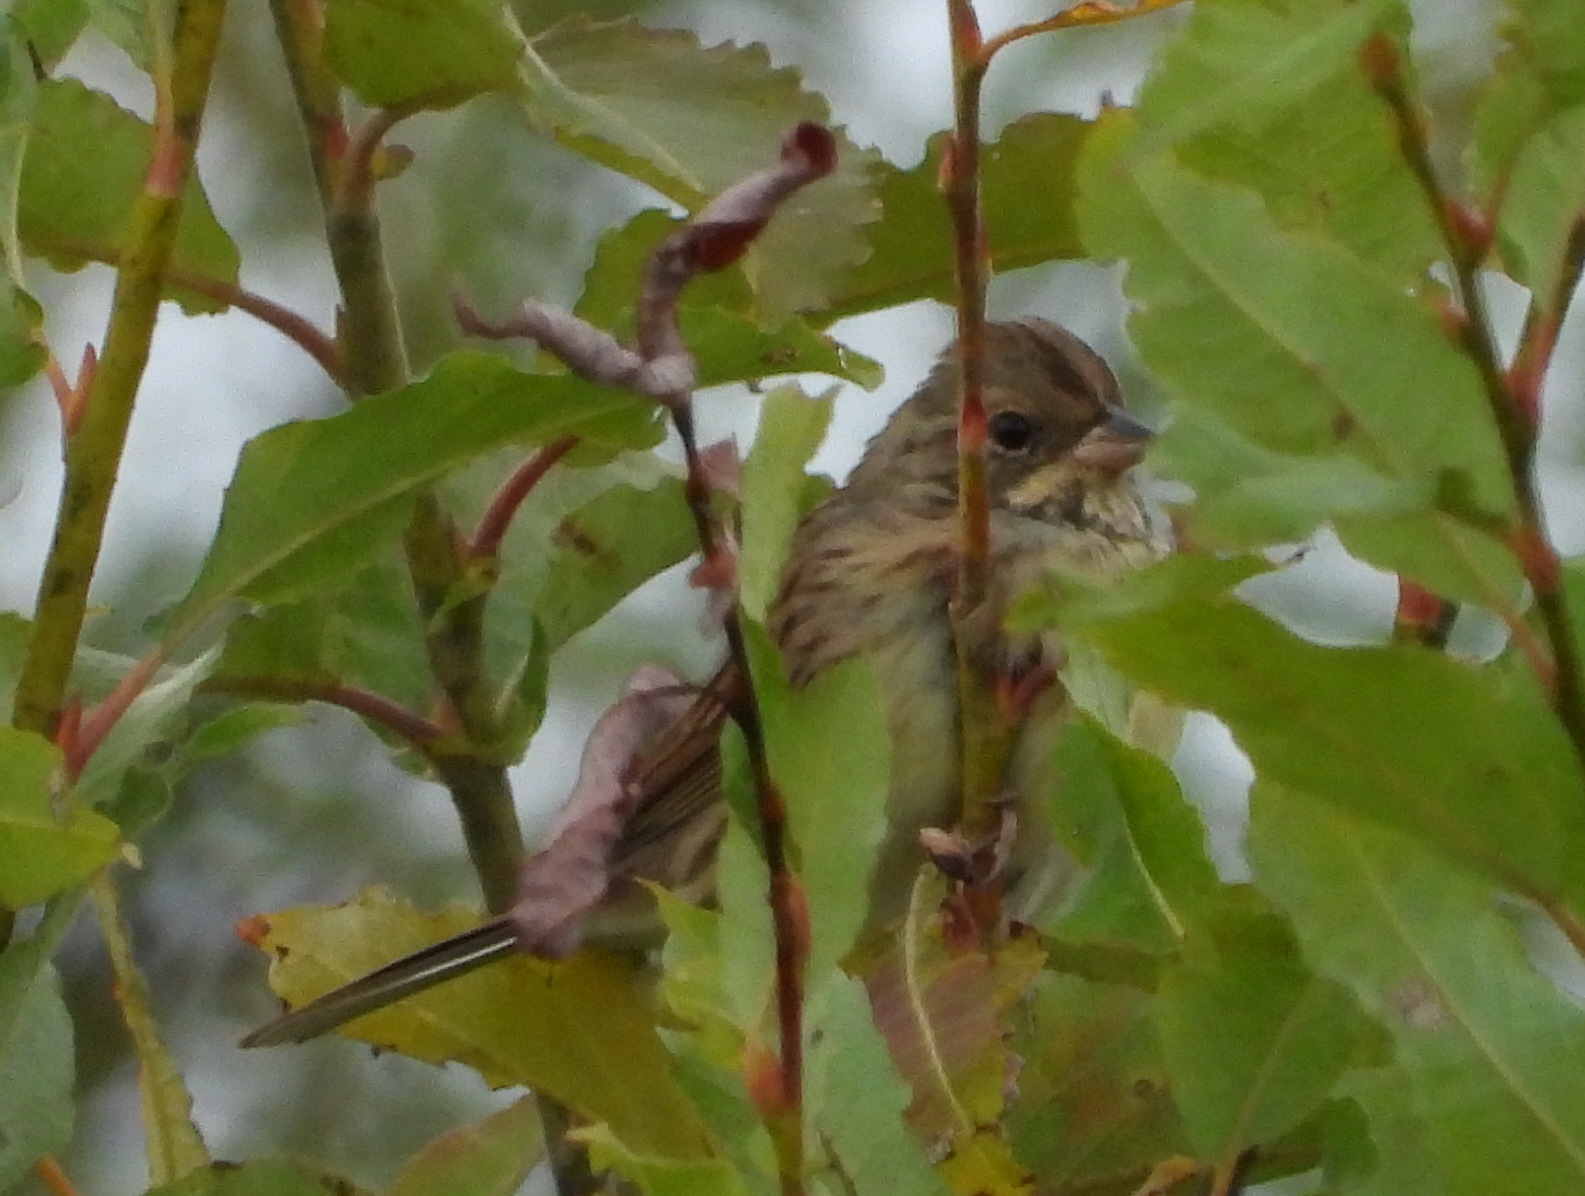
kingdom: Animalia
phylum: Chordata
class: Aves
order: Passeriformes
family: Emberizidae
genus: Emberiza
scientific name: Emberiza spodocephala
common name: Black-faced bunting
